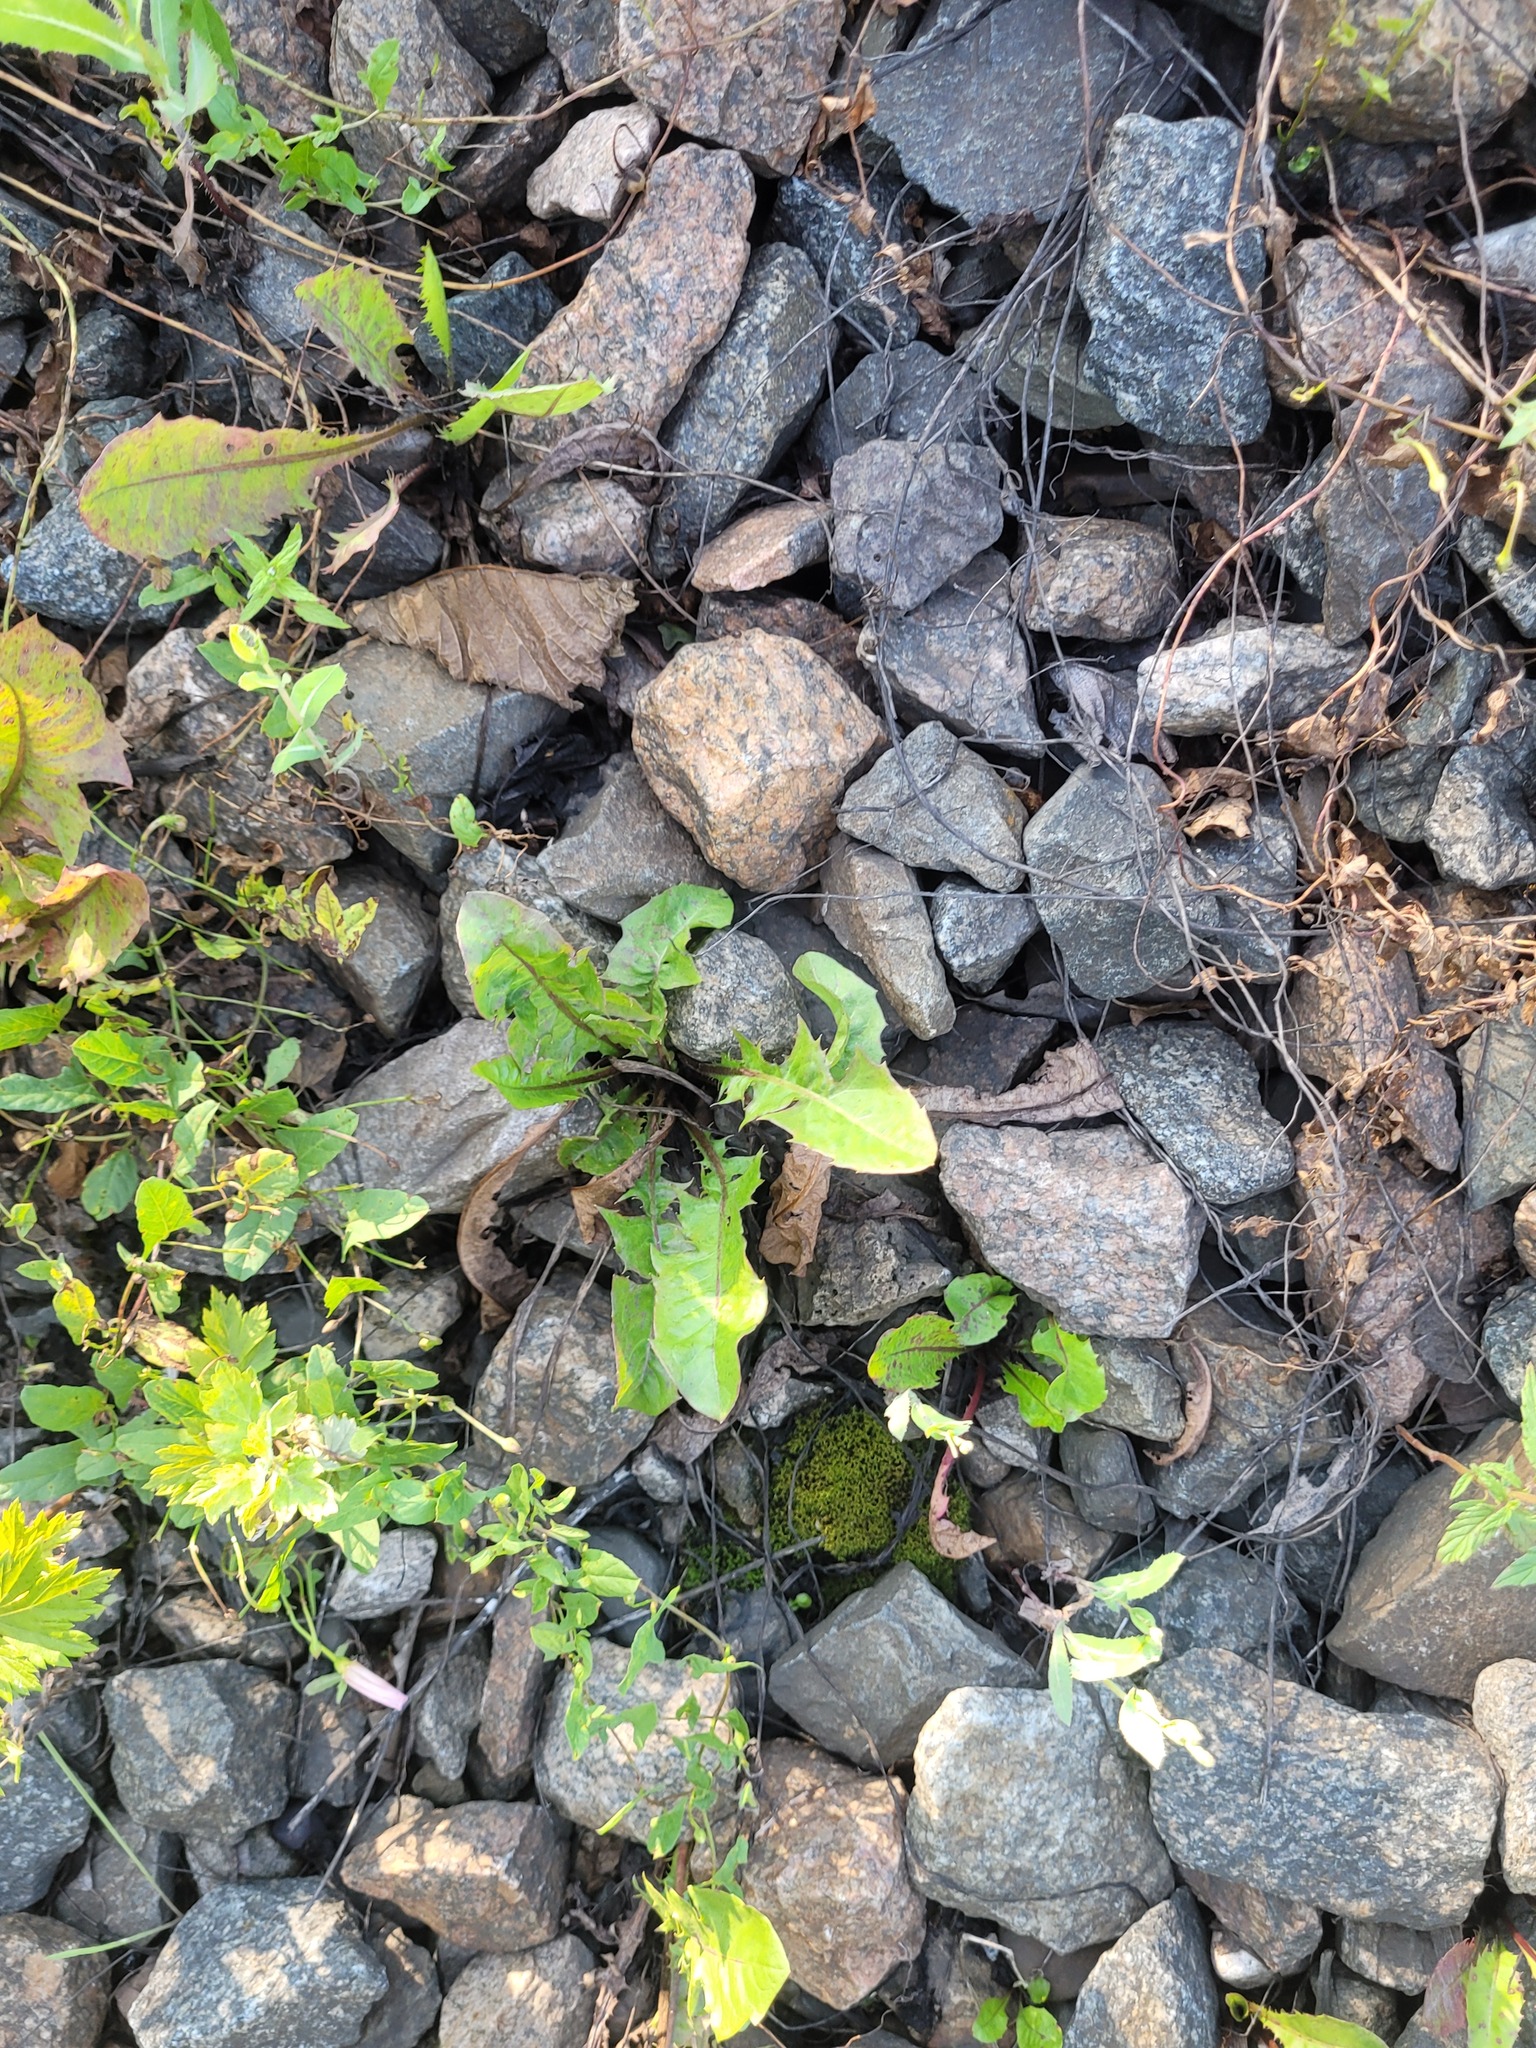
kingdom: Plantae
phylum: Tracheophyta
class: Magnoliopsida
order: Asterales
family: Asteraceae
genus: Taraxacum
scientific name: Taraxacum officinale
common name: Common dandelion
